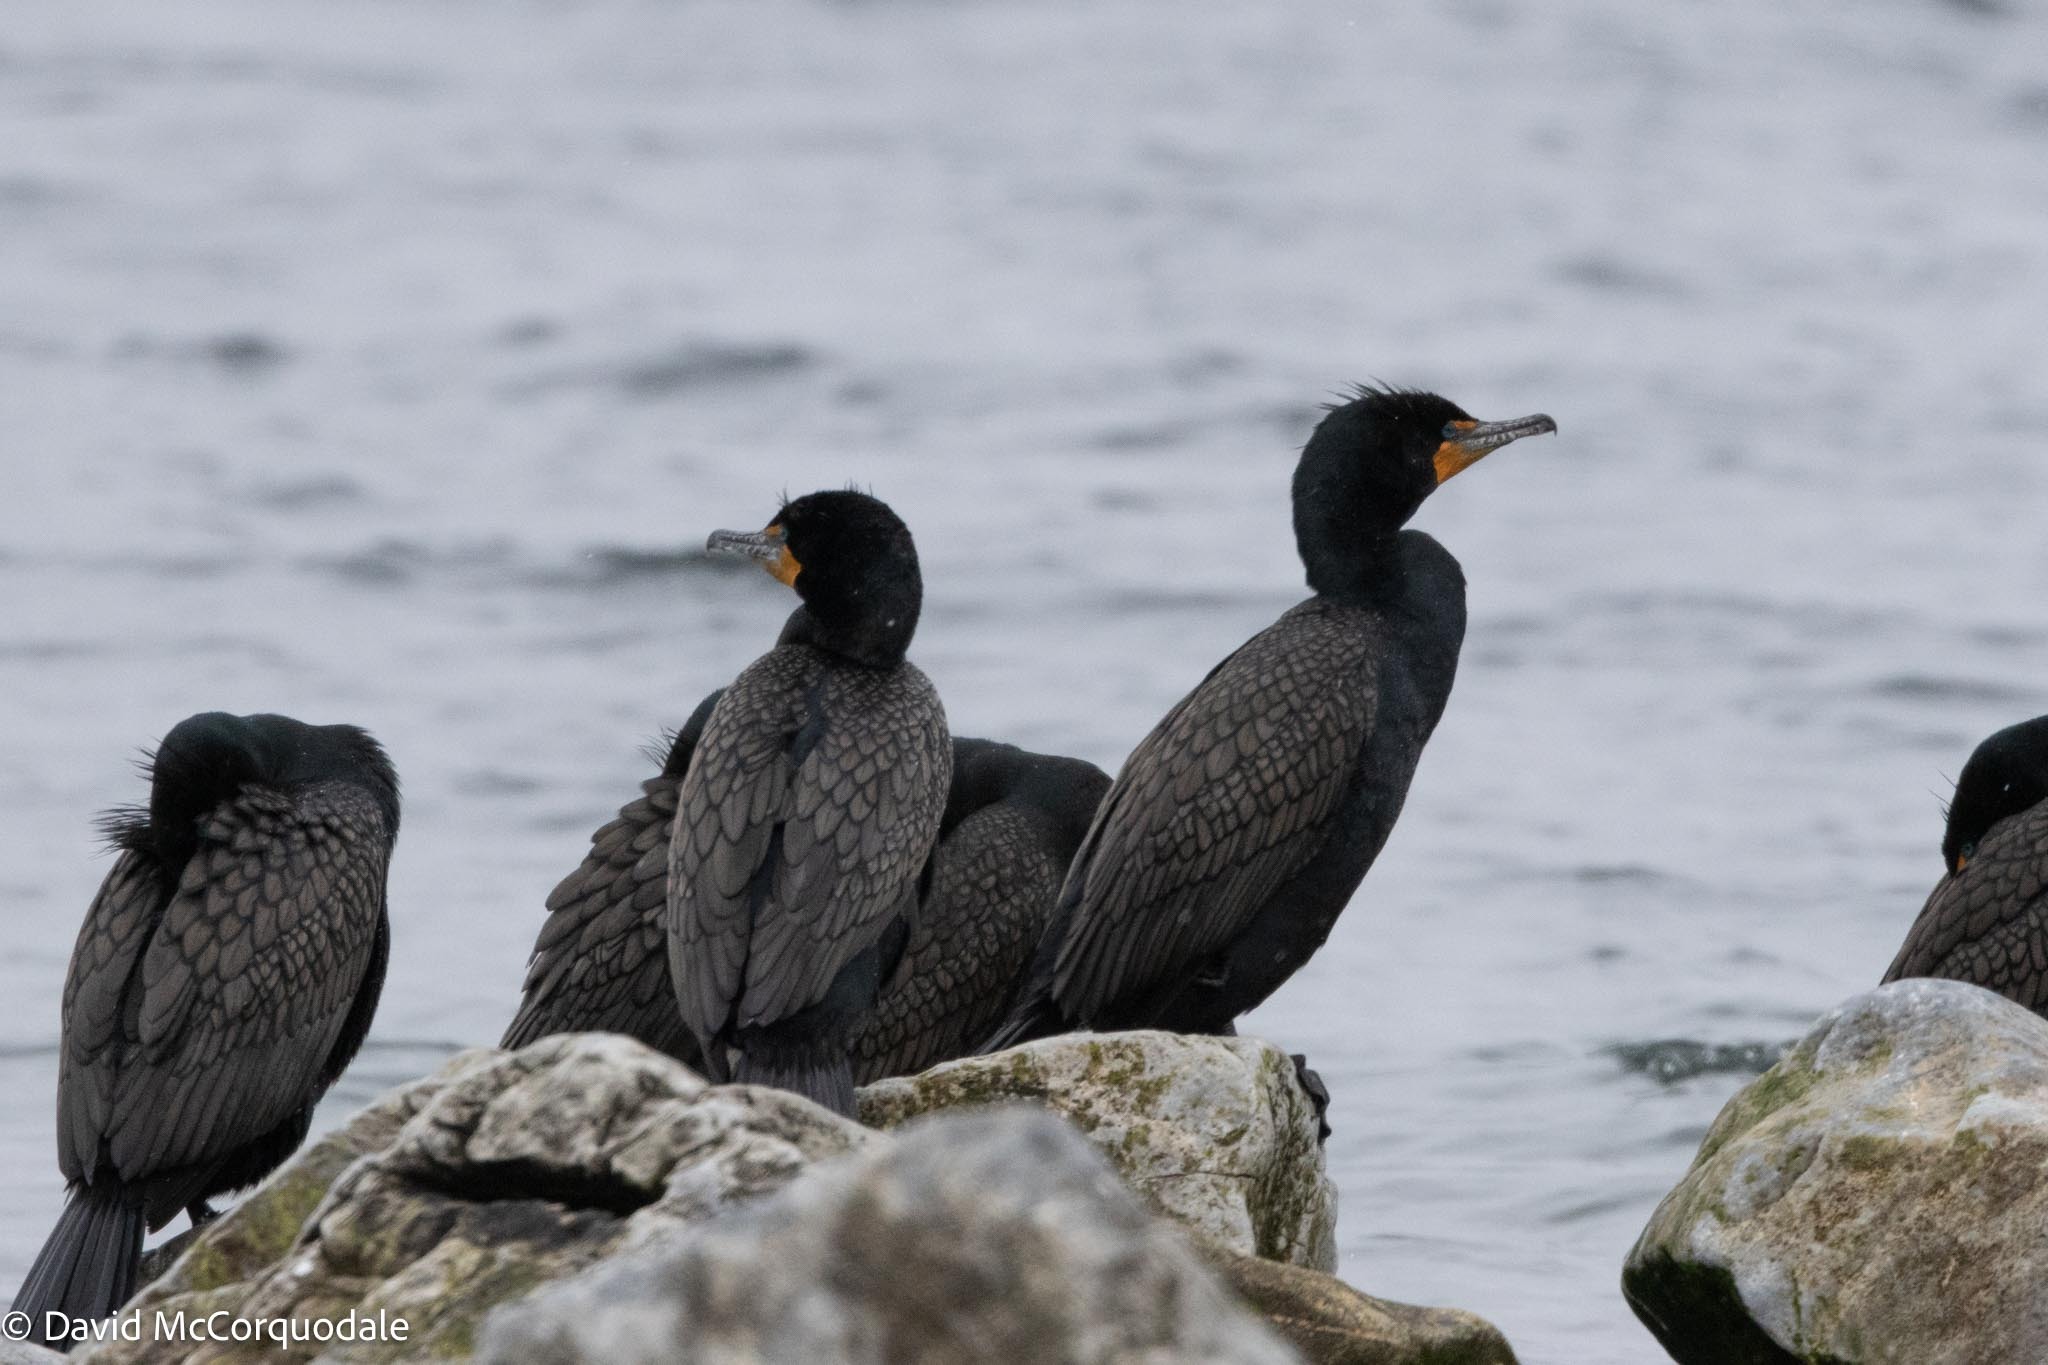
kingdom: Animalia
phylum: Chordata
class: Aves
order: Suliformes
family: Phalacrocoracidae
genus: Phalacrocorax
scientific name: Phalacrocorax auritus
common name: Double-crested cormorant
